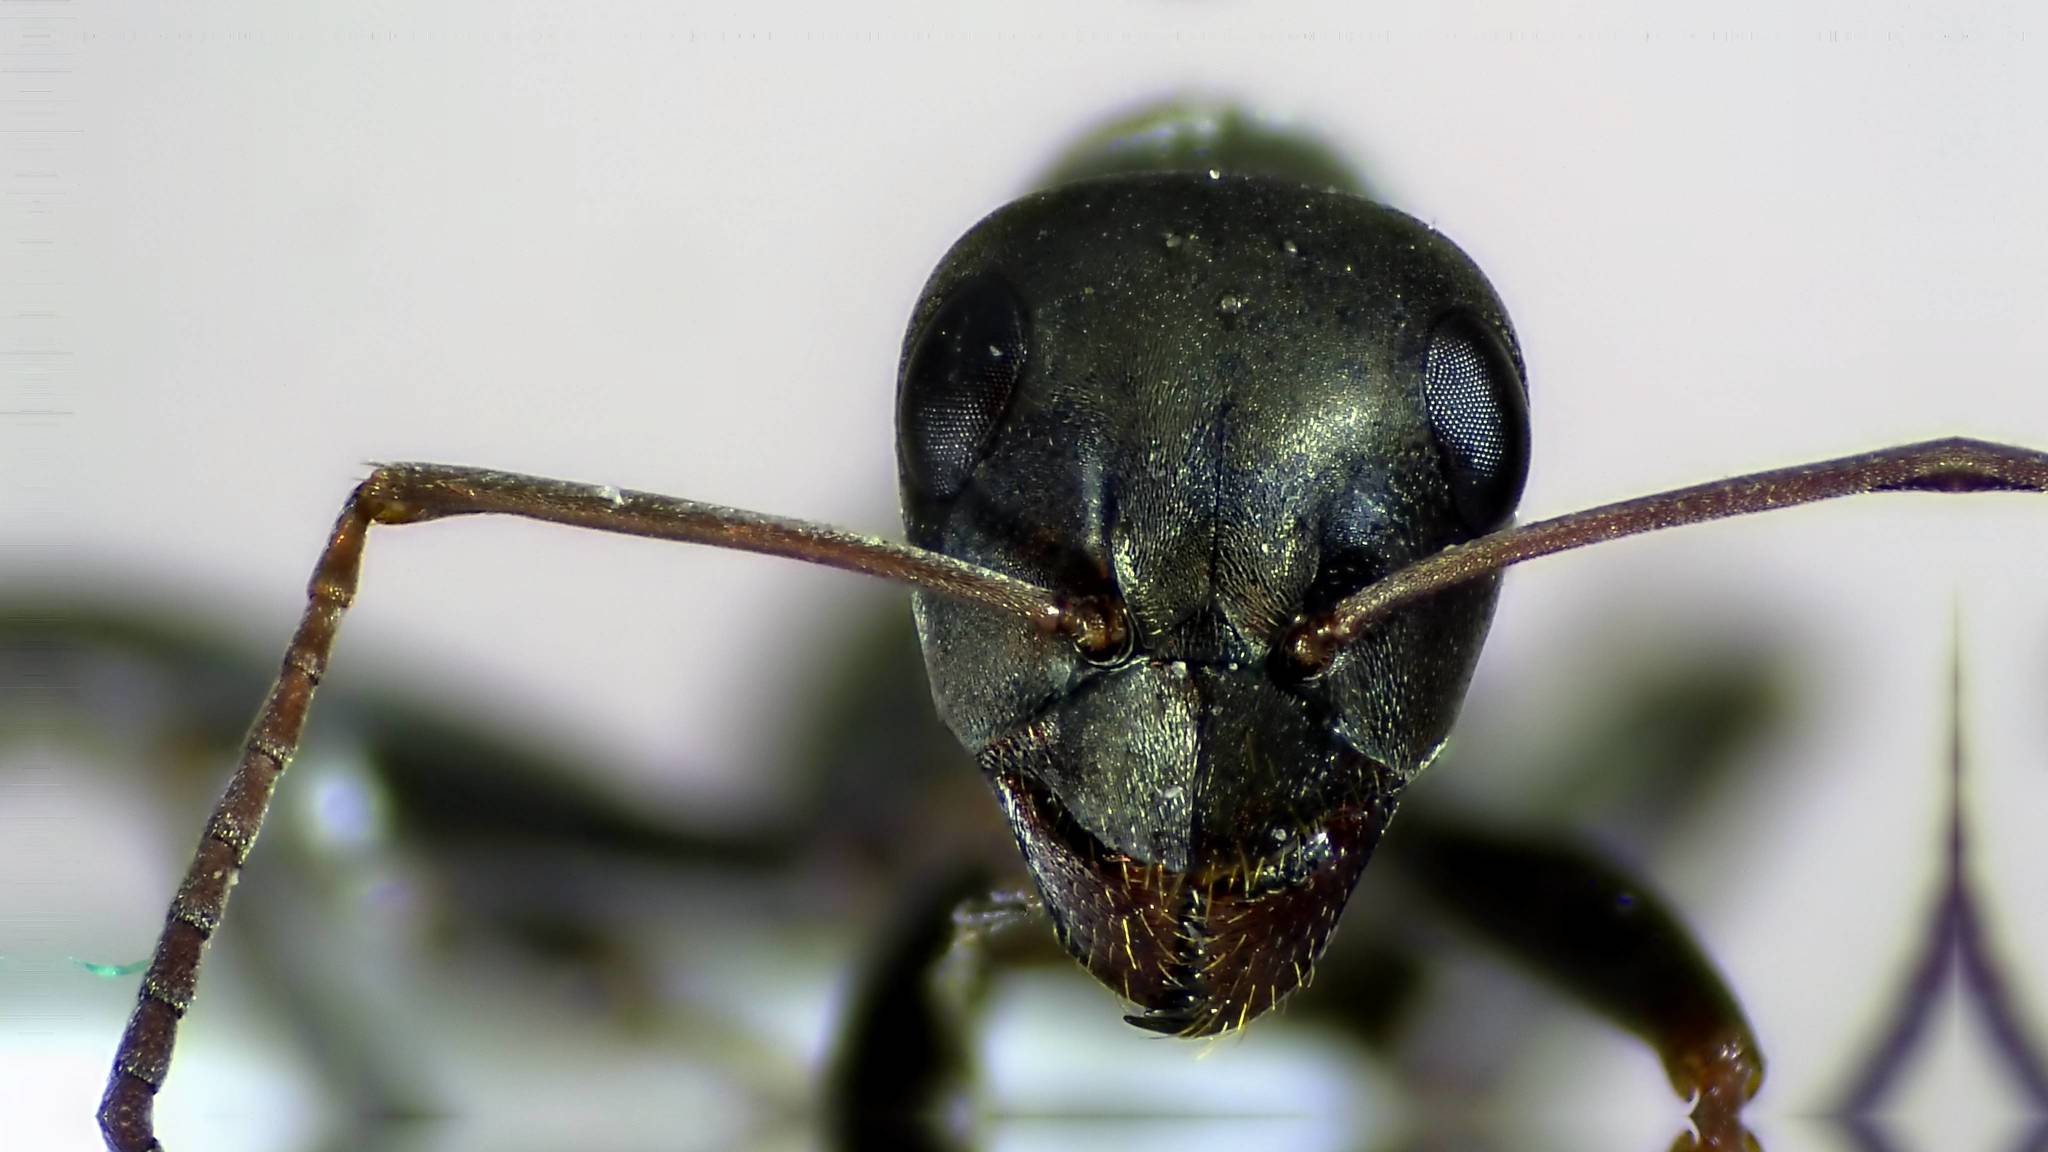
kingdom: Animalia
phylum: Arthropoda
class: Insecta
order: Hymenoptera
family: Formicidae
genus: Formica
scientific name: Formica subsericea
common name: Silky field ant
